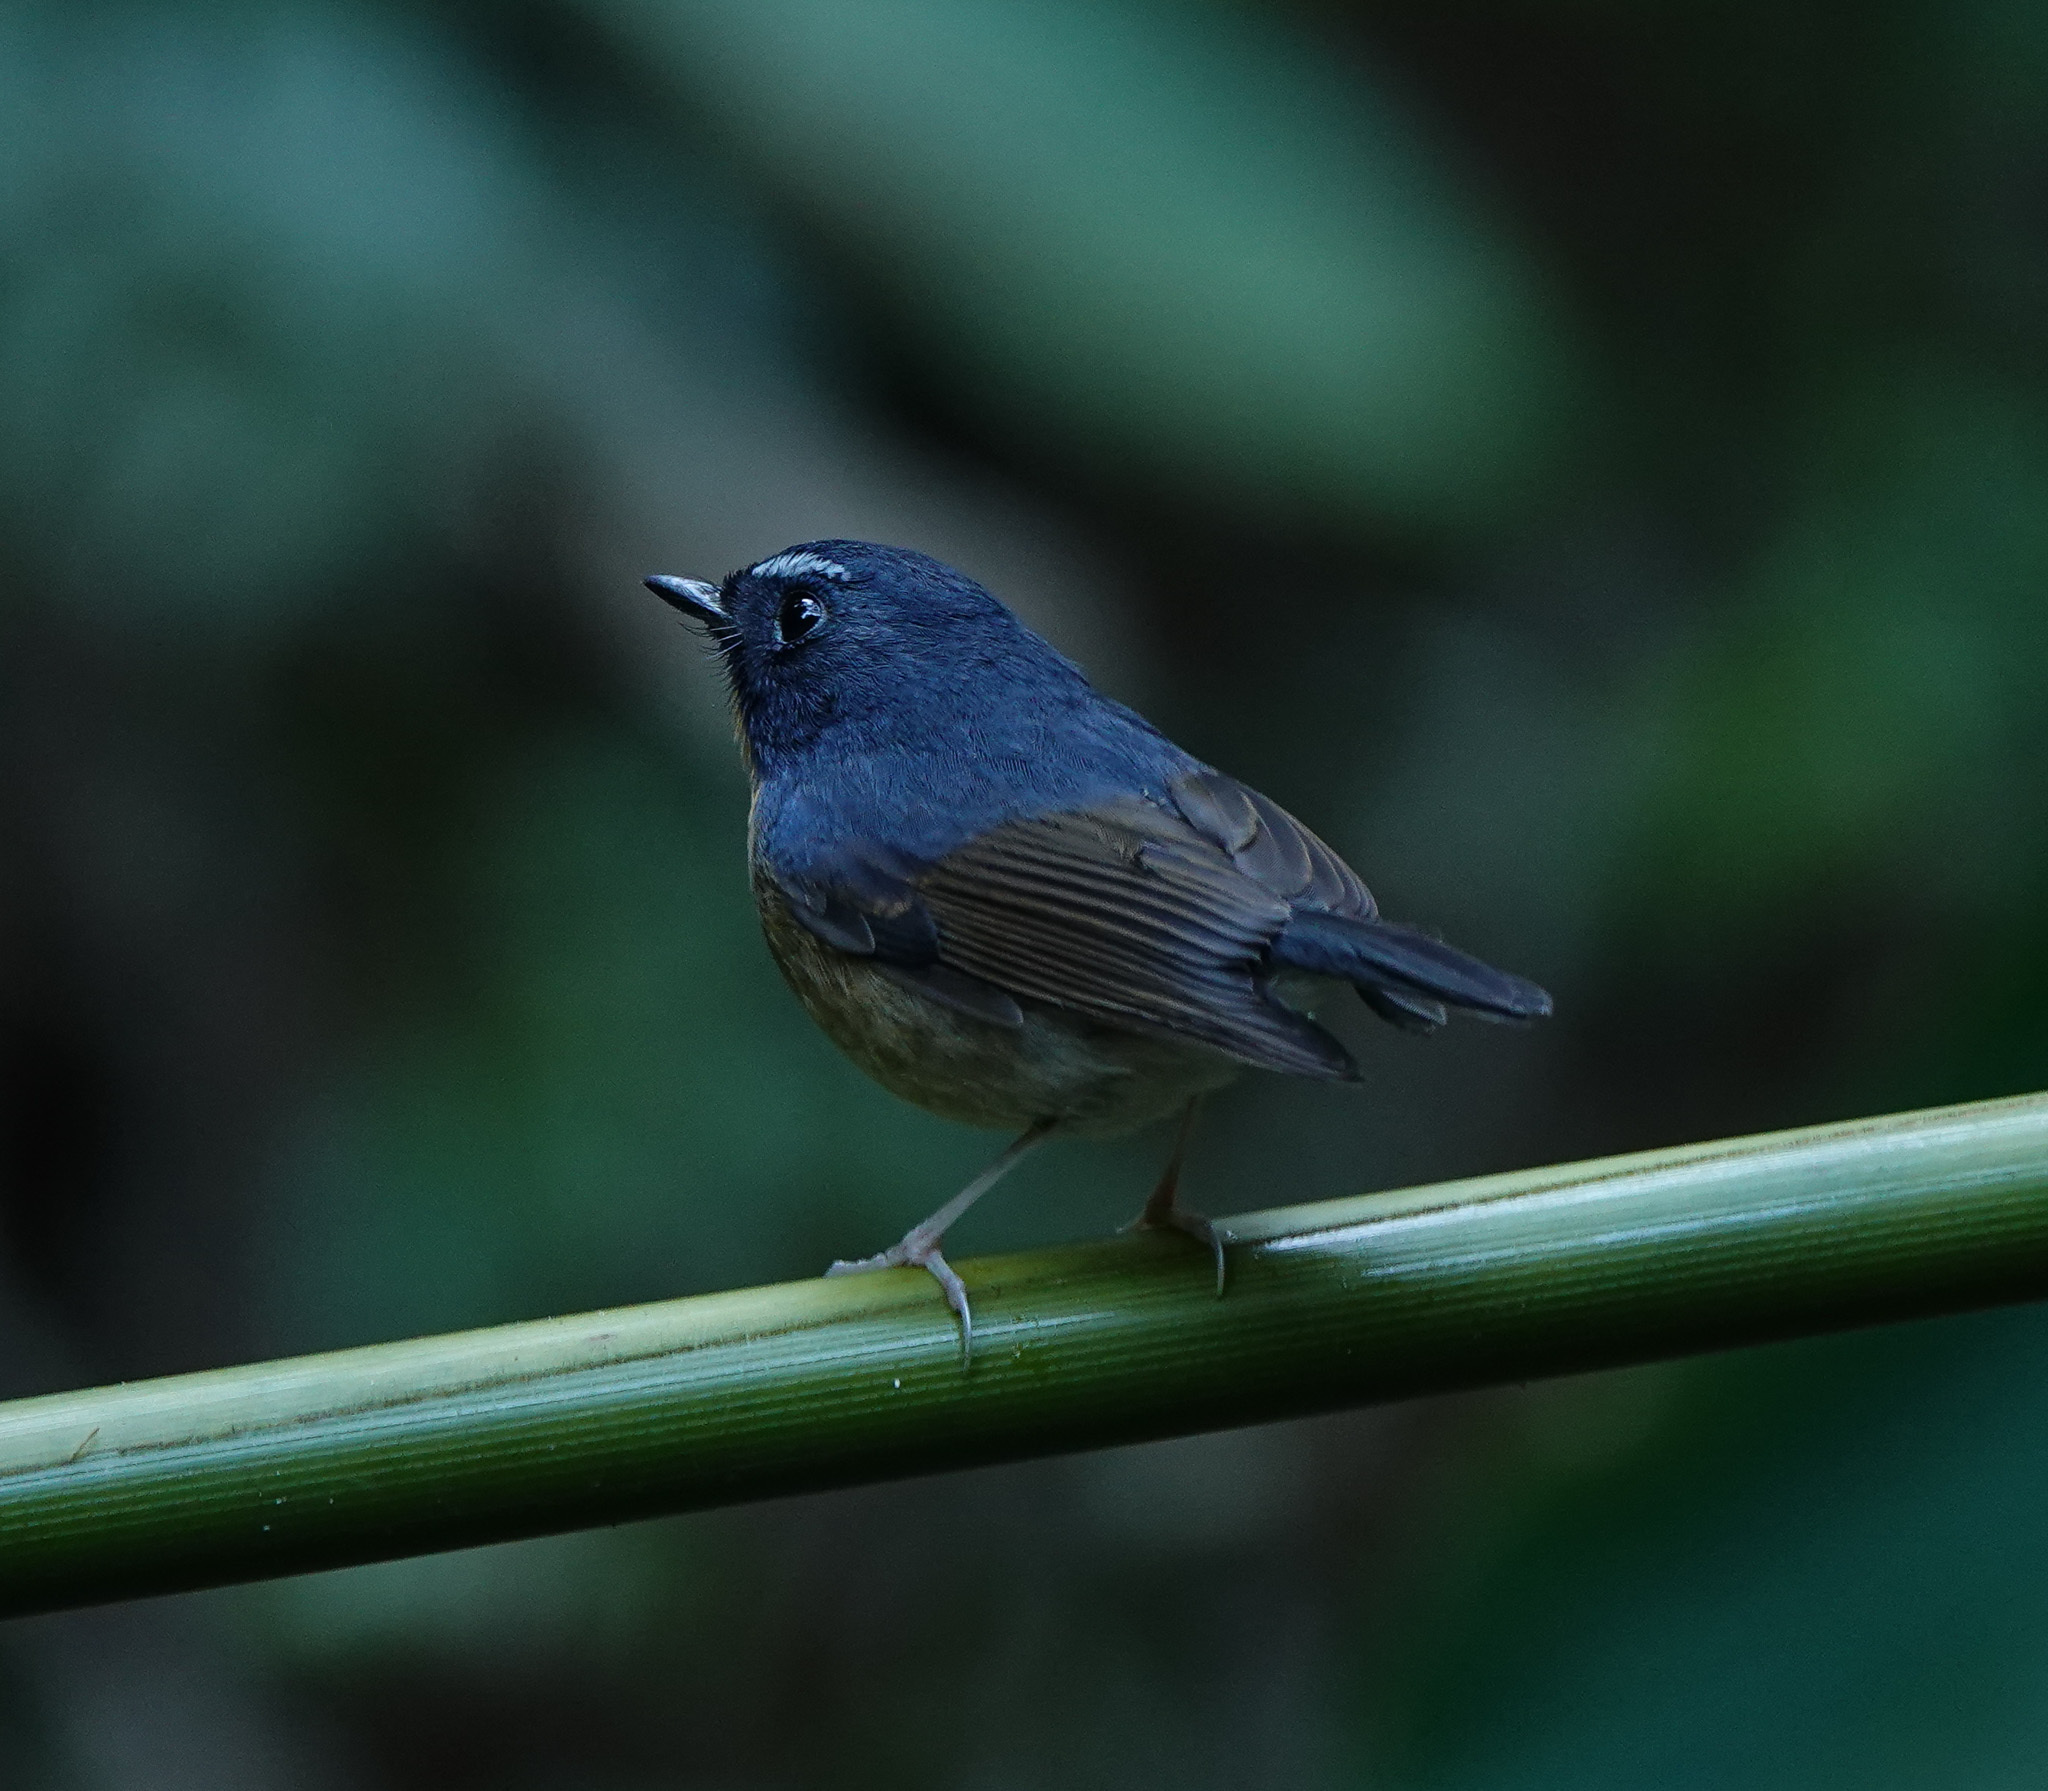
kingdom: Animalia
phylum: Chordata
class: Aves
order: Passeriformes
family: Muscicapidae
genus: Ficedula
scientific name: Ficedula hyperythra
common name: Snowy-browed flycatcher
